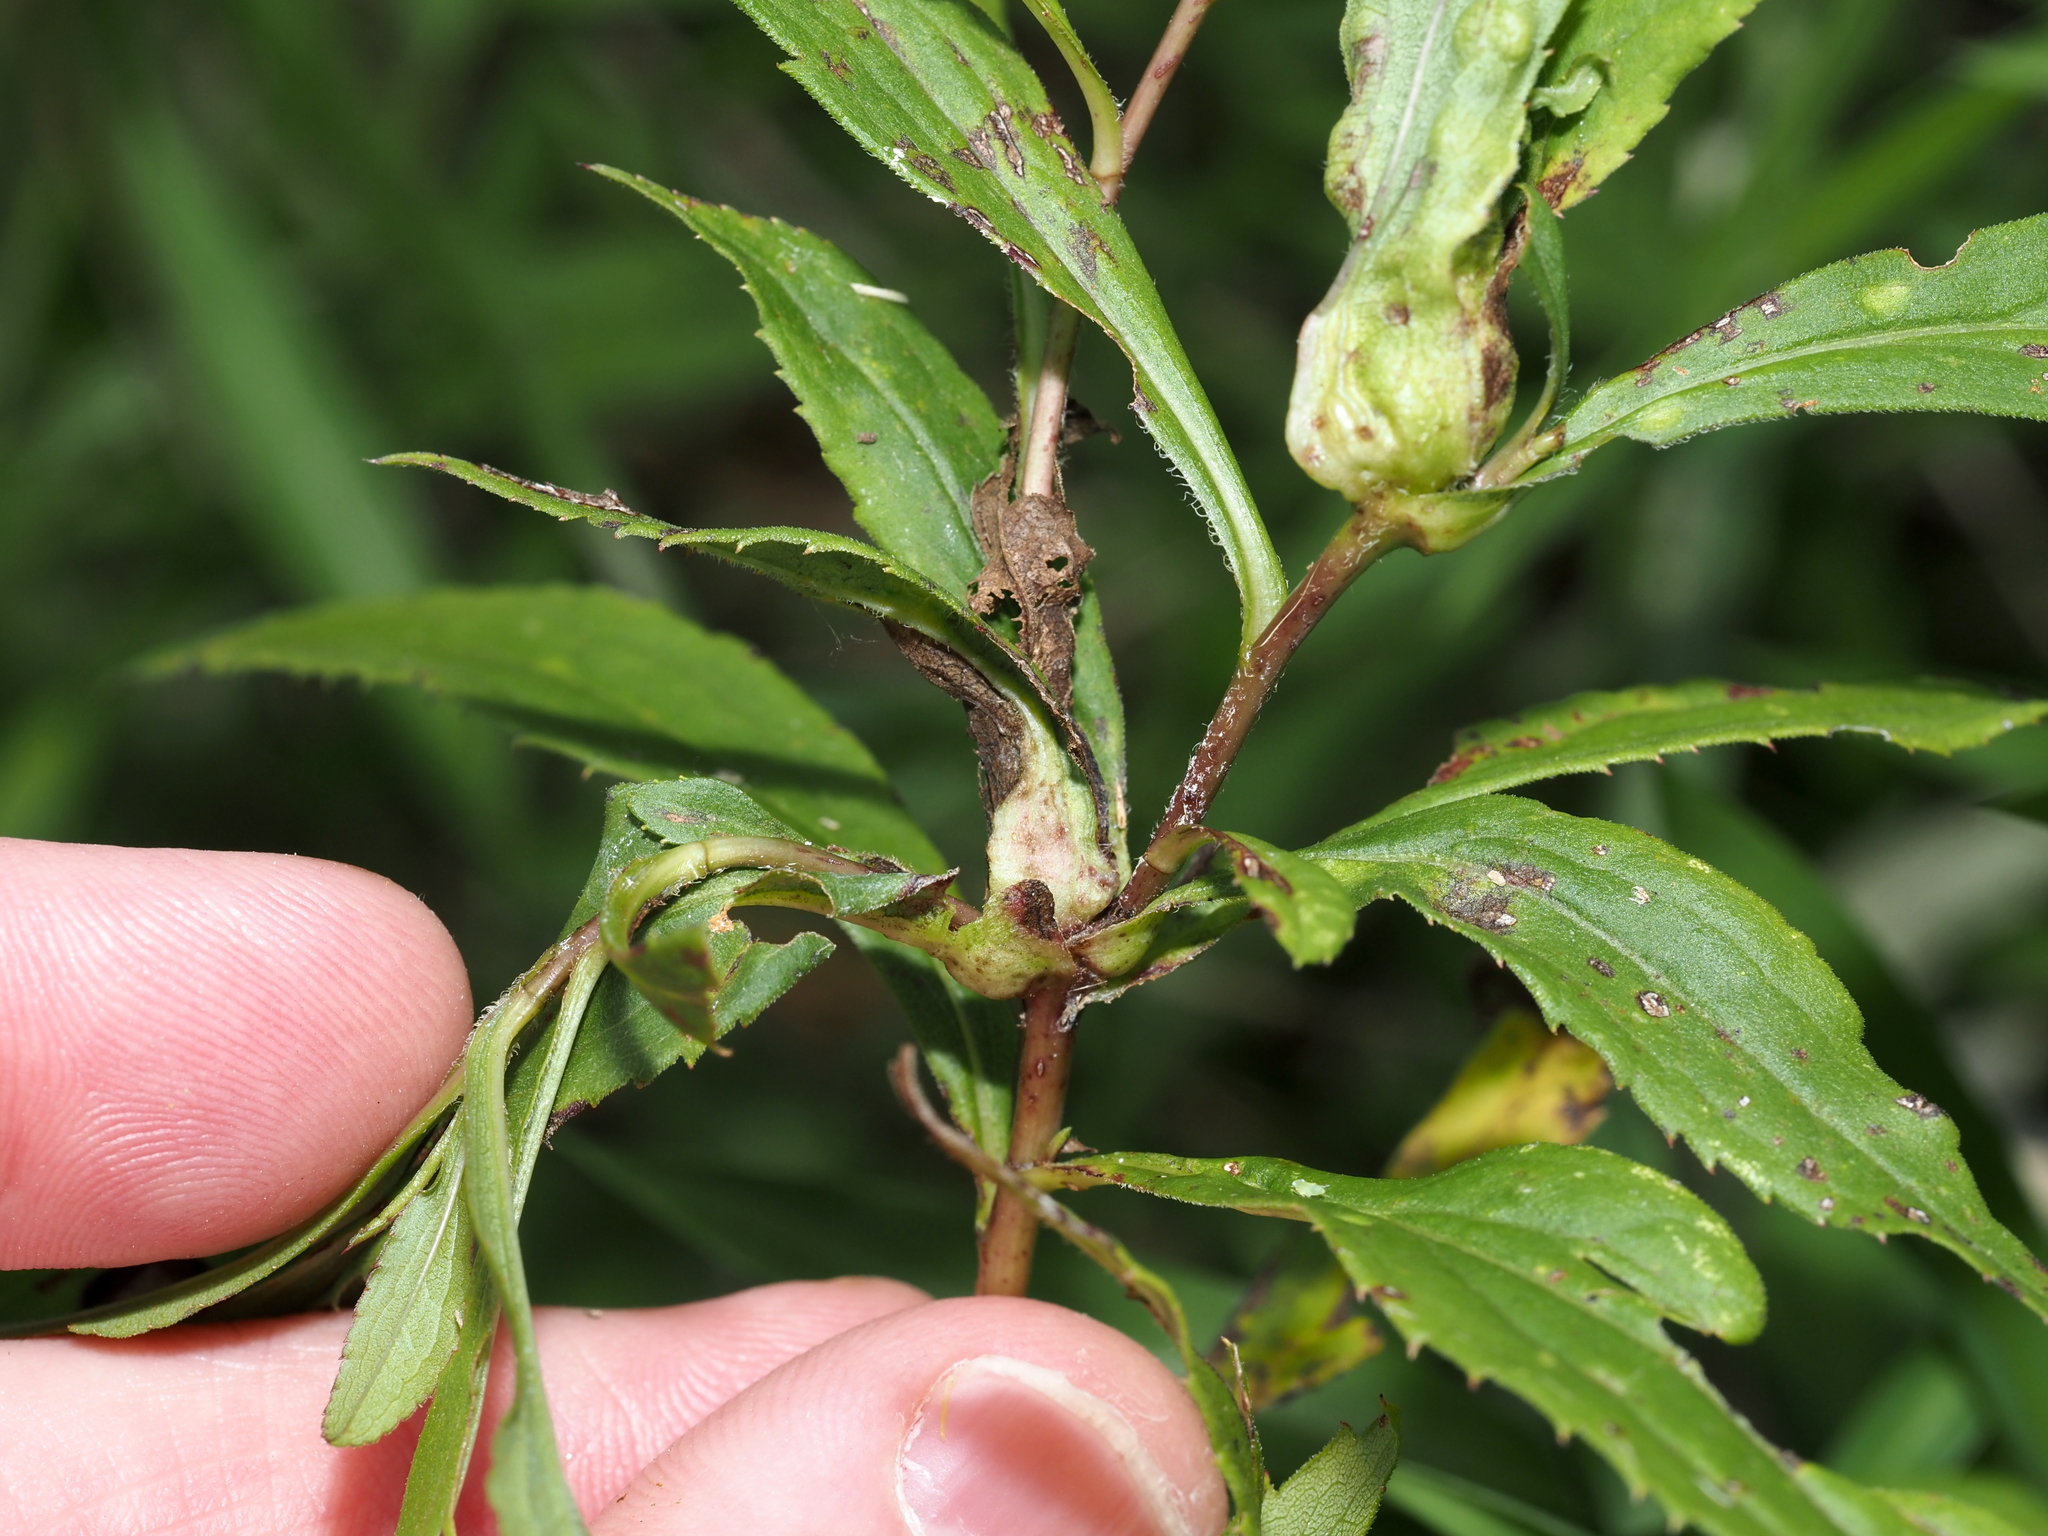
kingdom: Animalia
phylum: Arthropoda
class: Insecta
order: Diptera
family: Cecidomyiidae
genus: Dasineura
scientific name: Dasineura folliculi
